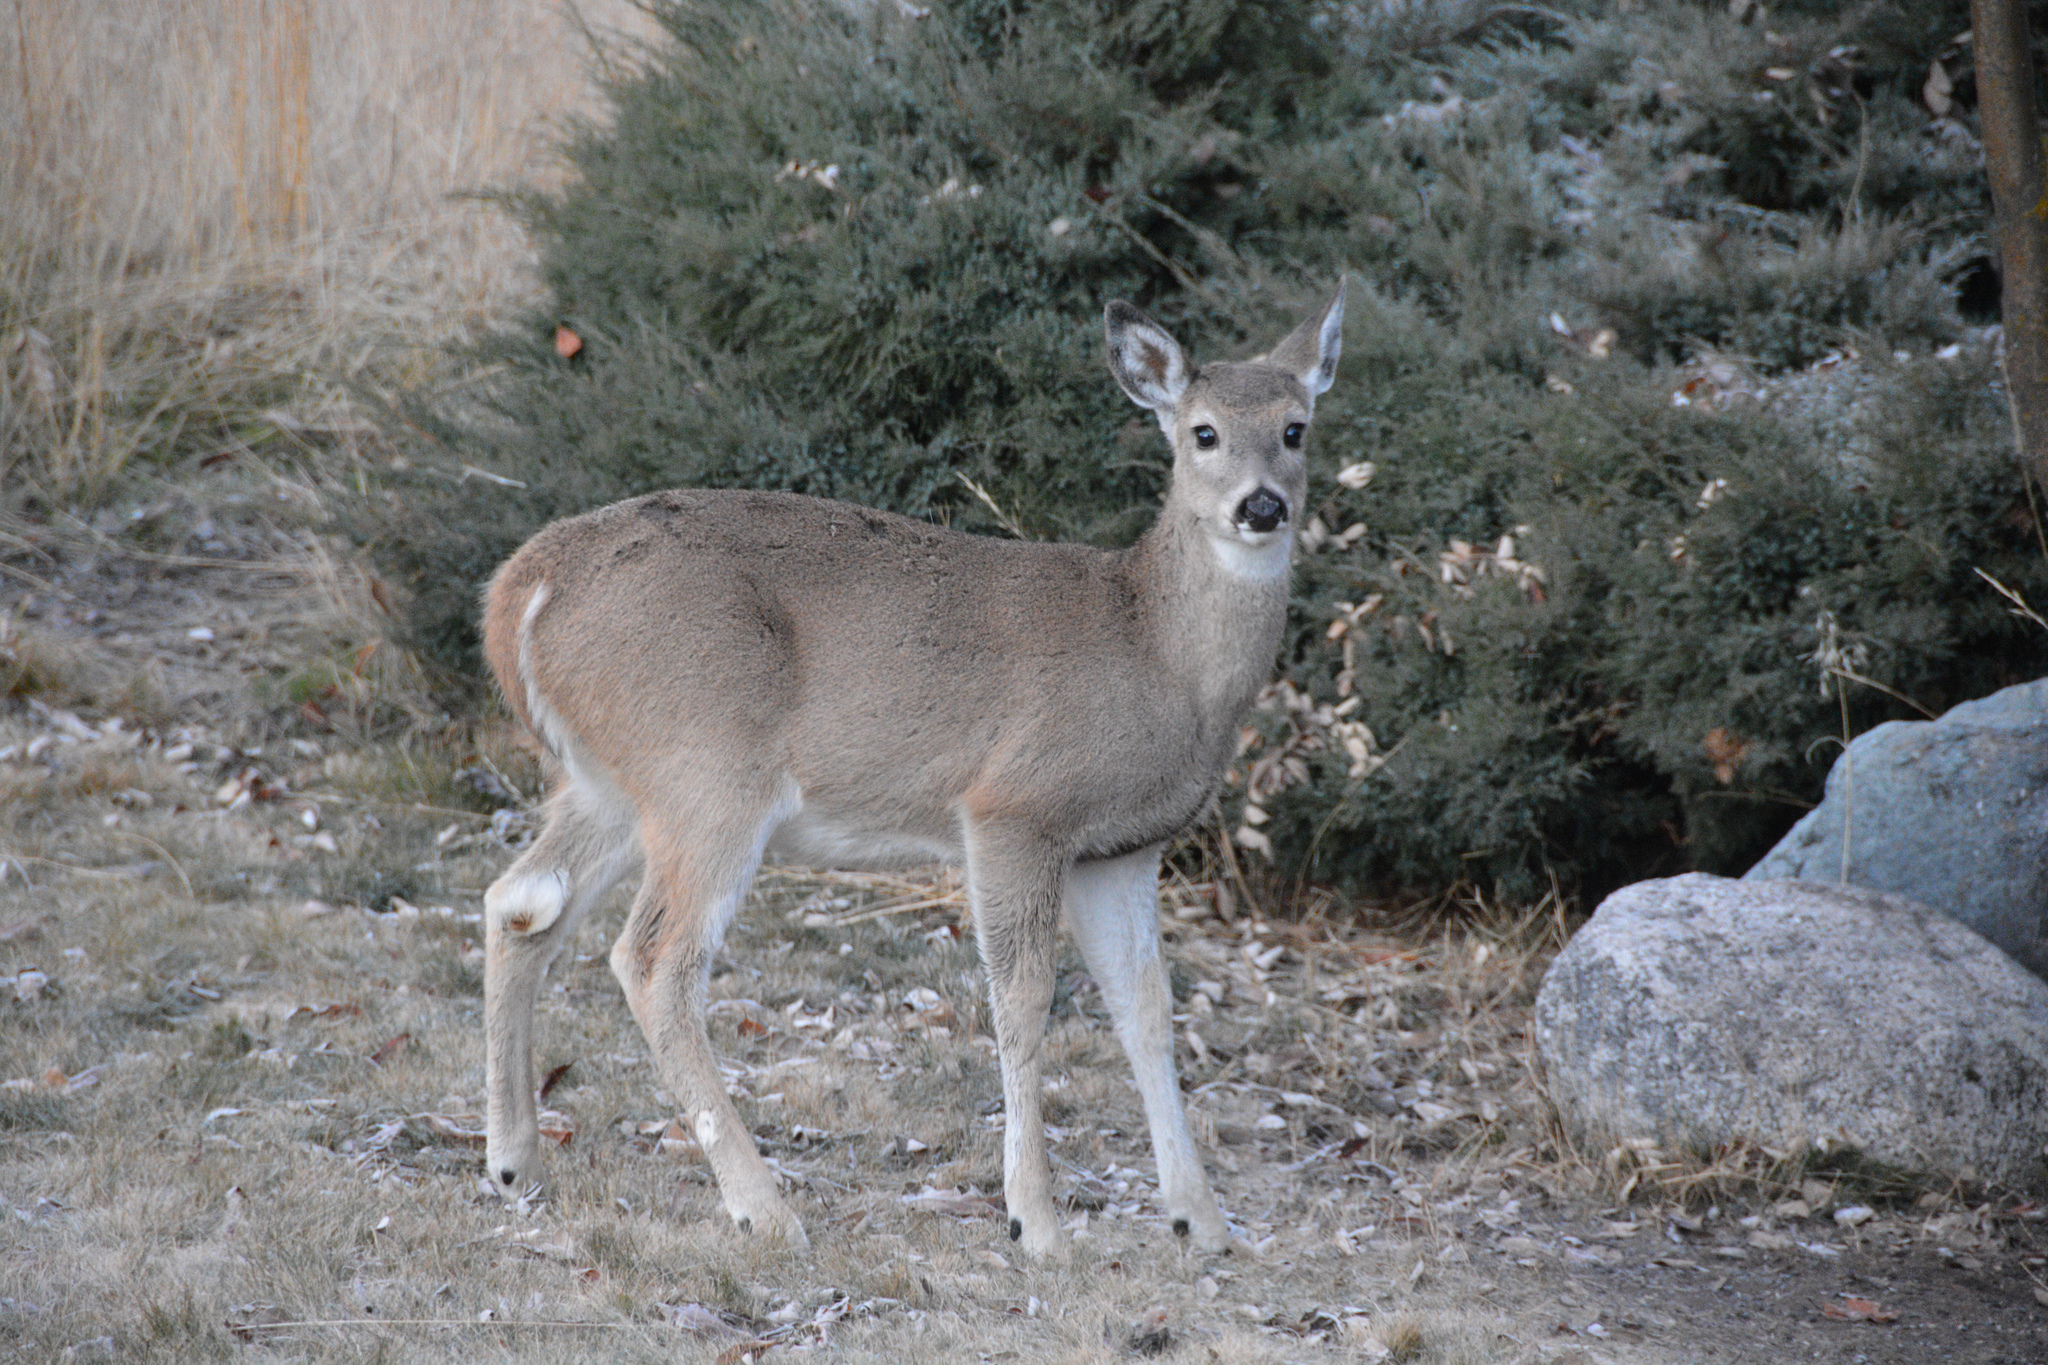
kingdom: Animalia
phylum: Chordata
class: Mammalia
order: Artiodactyla
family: Cervidae
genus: Odocoileus
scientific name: Odocoileus virginianus
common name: White-tailed deer
